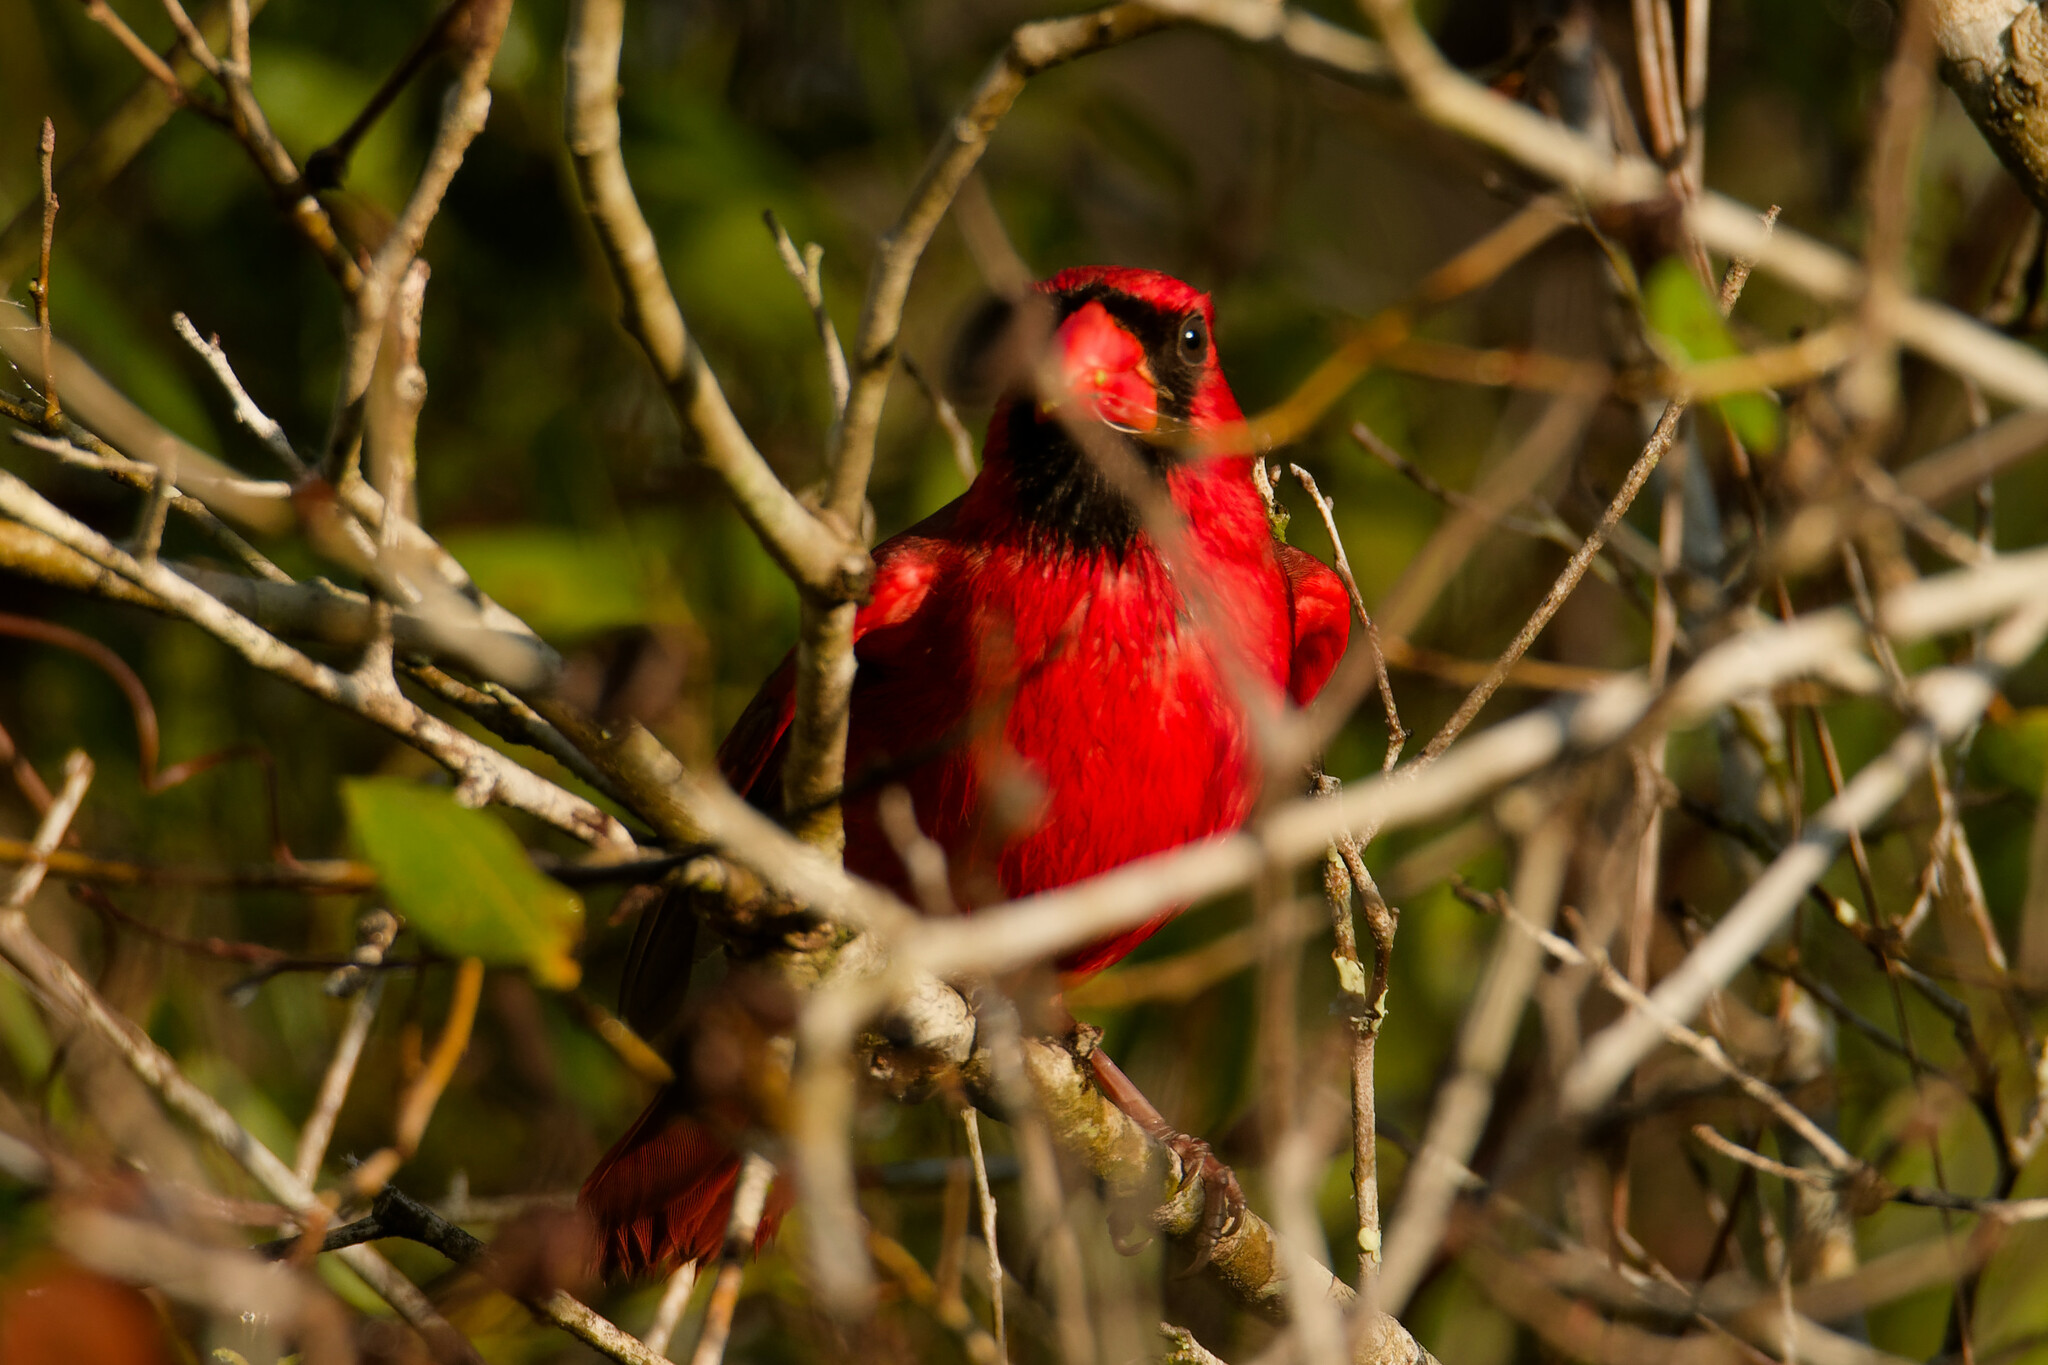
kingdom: Animalia
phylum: Chordata
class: Aves
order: Passeriformes
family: Cardinalidae
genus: Cardinalis
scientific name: Cardinalis cardinalis
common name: Northern cardinal
